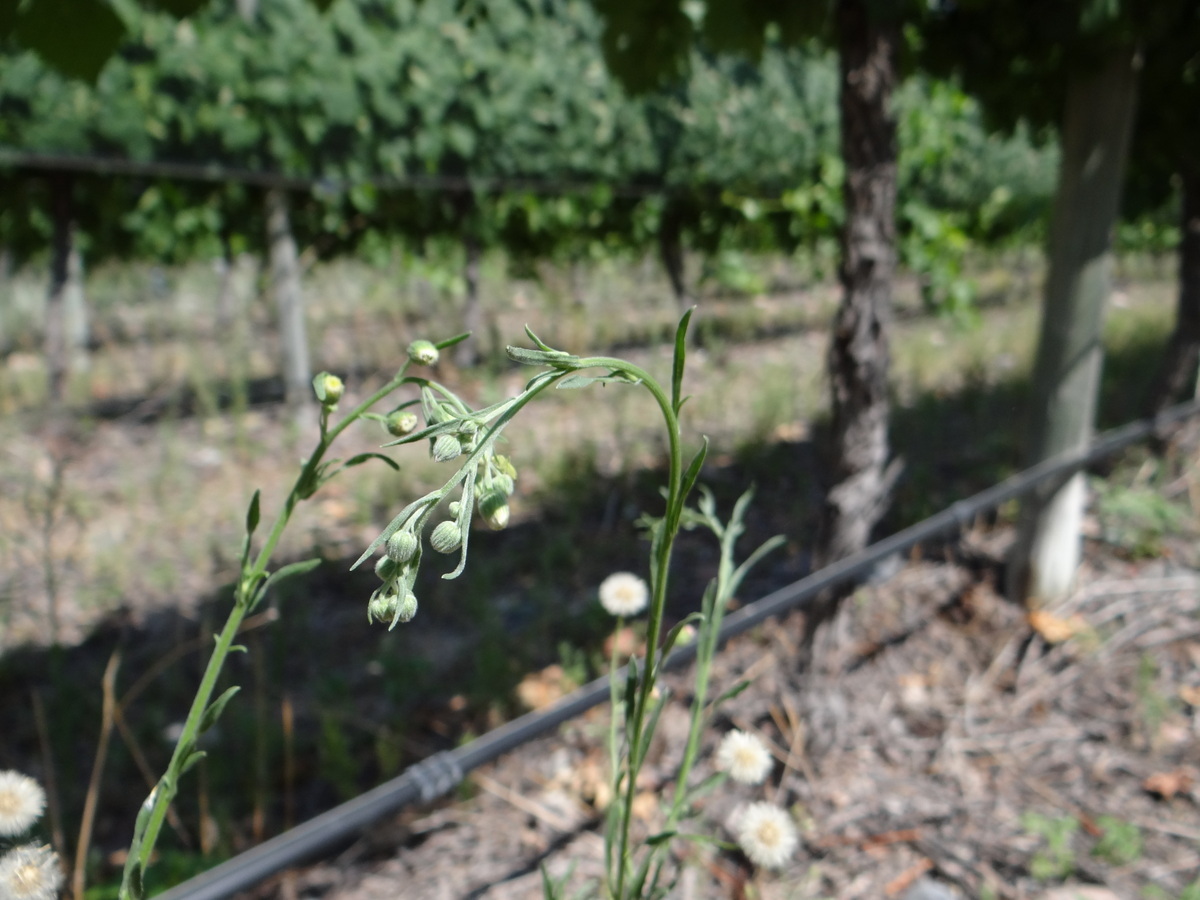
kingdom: Plantae
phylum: Tracheophyta
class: Magnoliopsida
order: Asterales
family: Asteraceae
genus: Erigeron
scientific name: Erigeron bonariensis
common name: Argentine fleabane
